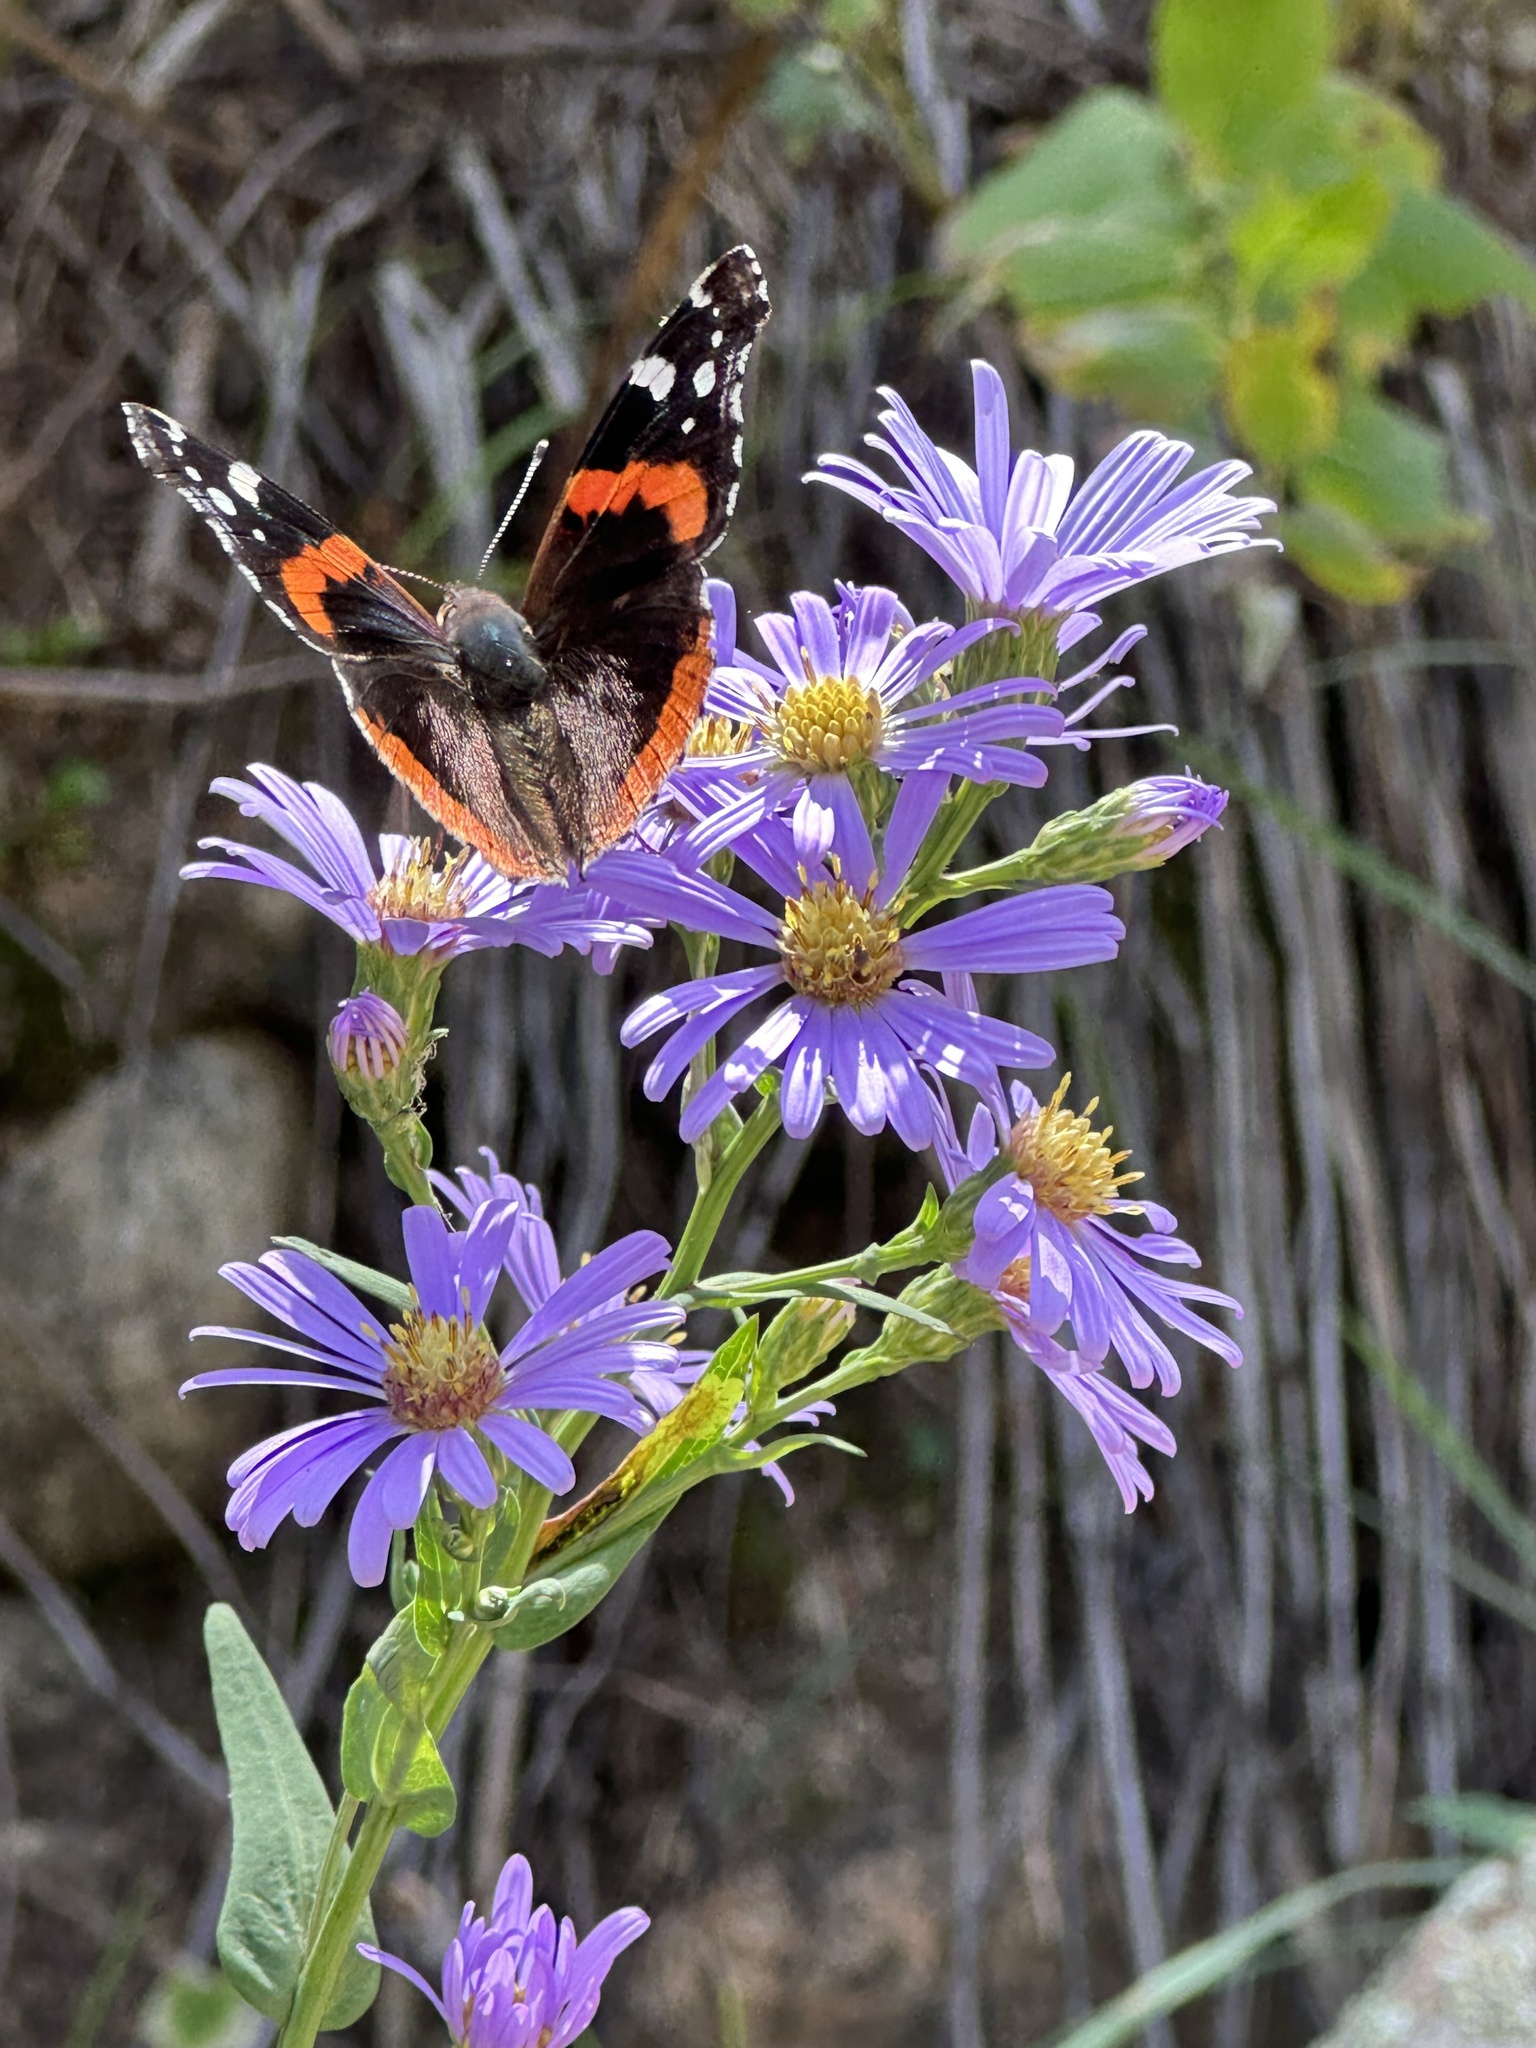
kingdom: Animalia
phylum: Arthropoda
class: Insecta
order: Lepidoptera
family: Nymphalidae
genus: Vanessa
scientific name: Vanessa atalanta
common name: Red admiral
